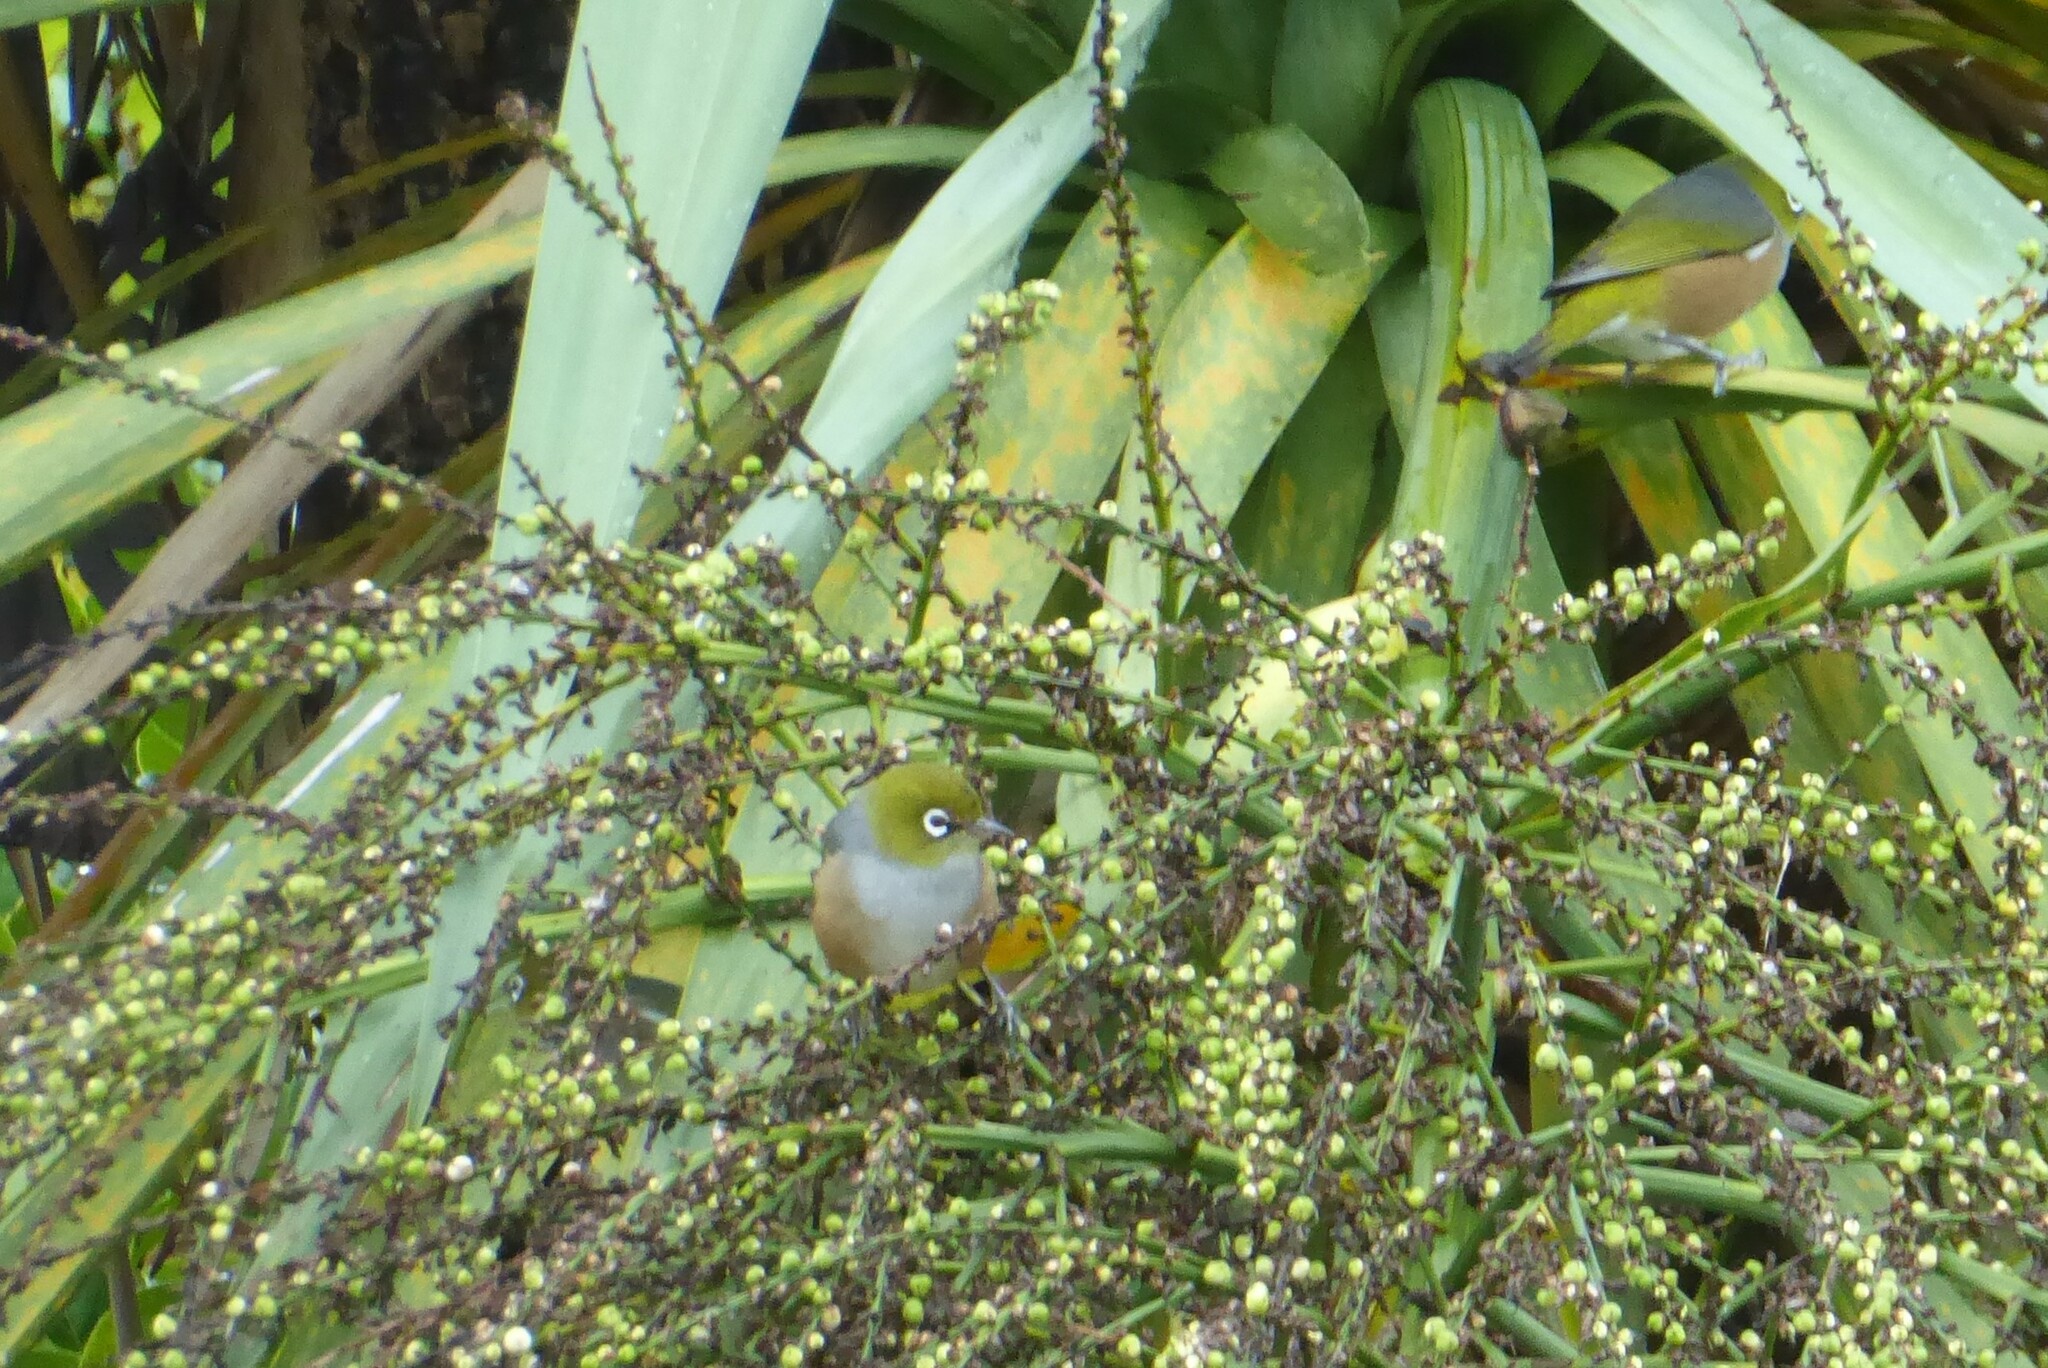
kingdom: Animalia
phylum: Chordata
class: Aves
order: Passeriformes
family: Zosteropidae
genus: Zosterops
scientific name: Zosterops lateralis
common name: Silvereye
